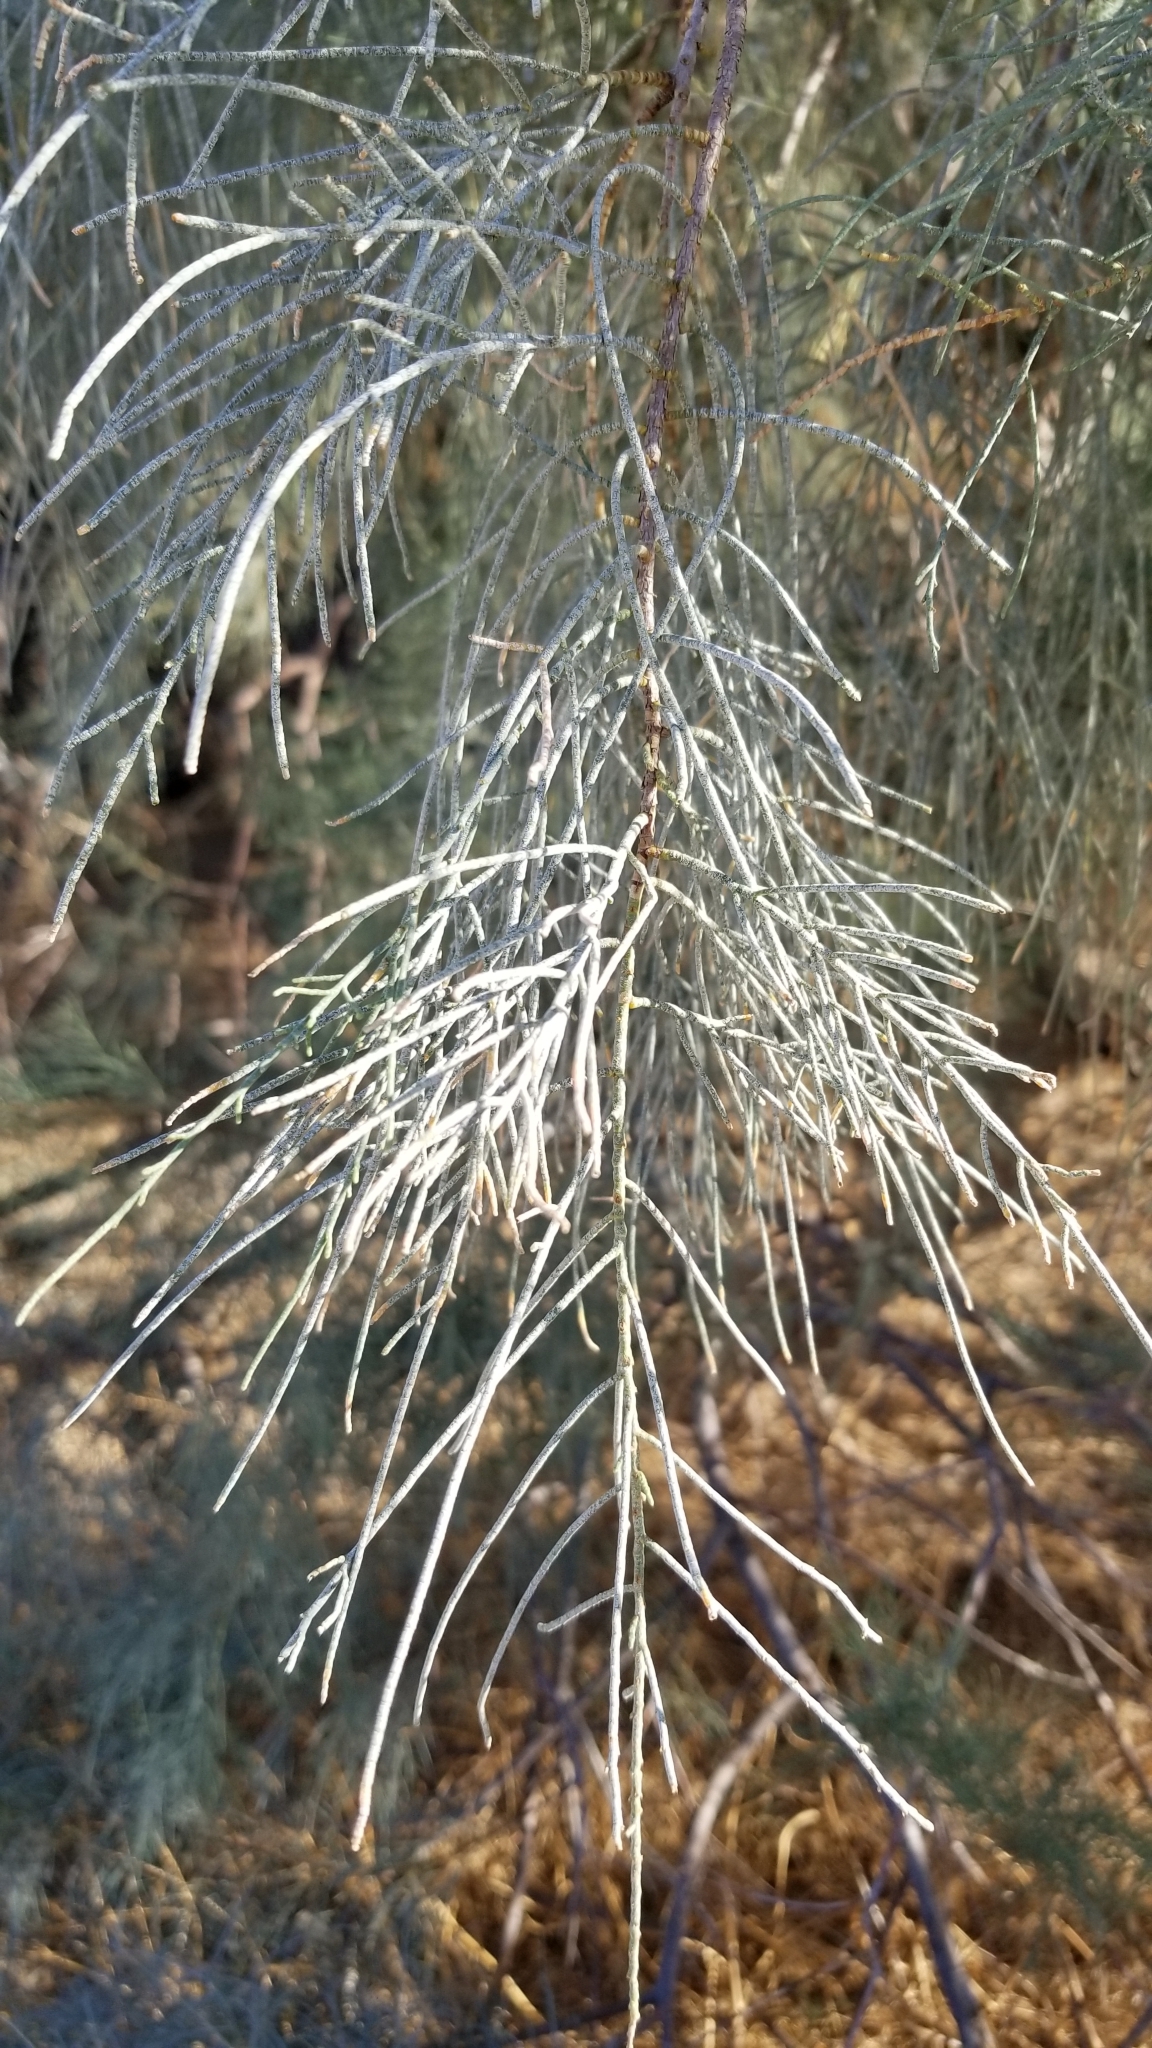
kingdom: Plantae
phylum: Tracheophyta
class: Magnoliopsida
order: Caryophyllales
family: Tamaricaceae
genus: Tamarix
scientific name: Tamarix aphylla
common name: Athel tamarisk
